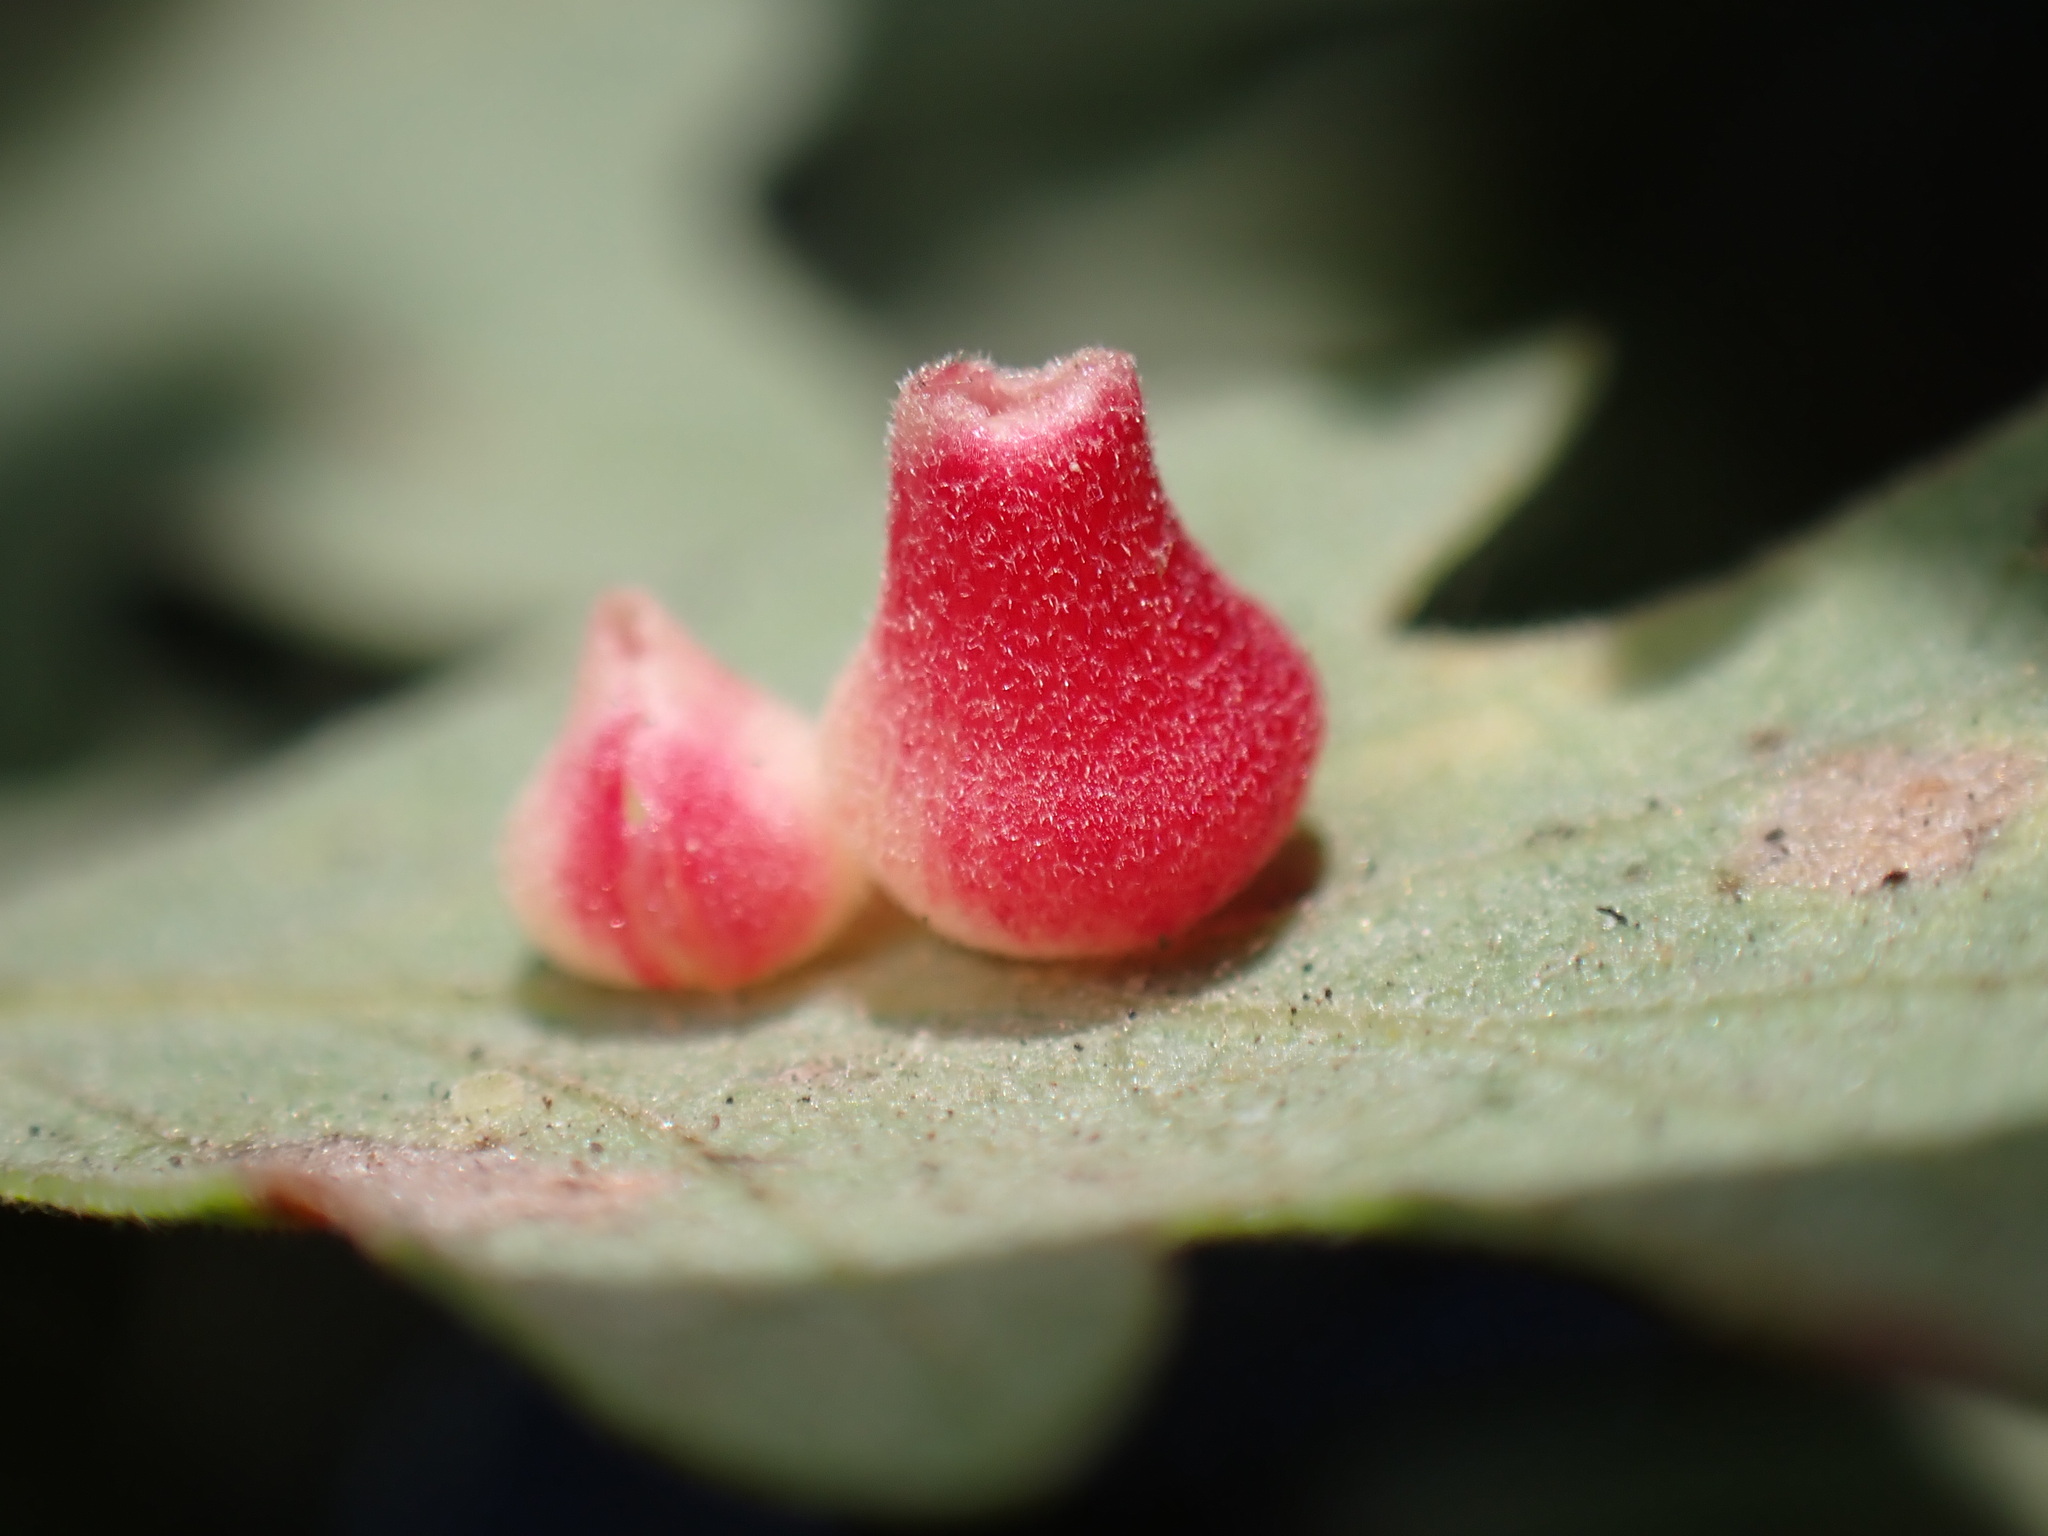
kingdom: Animalia
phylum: Arthropoda
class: Insecta
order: Hymenoptera
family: Cynipidae
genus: Andricus
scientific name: Andricus
